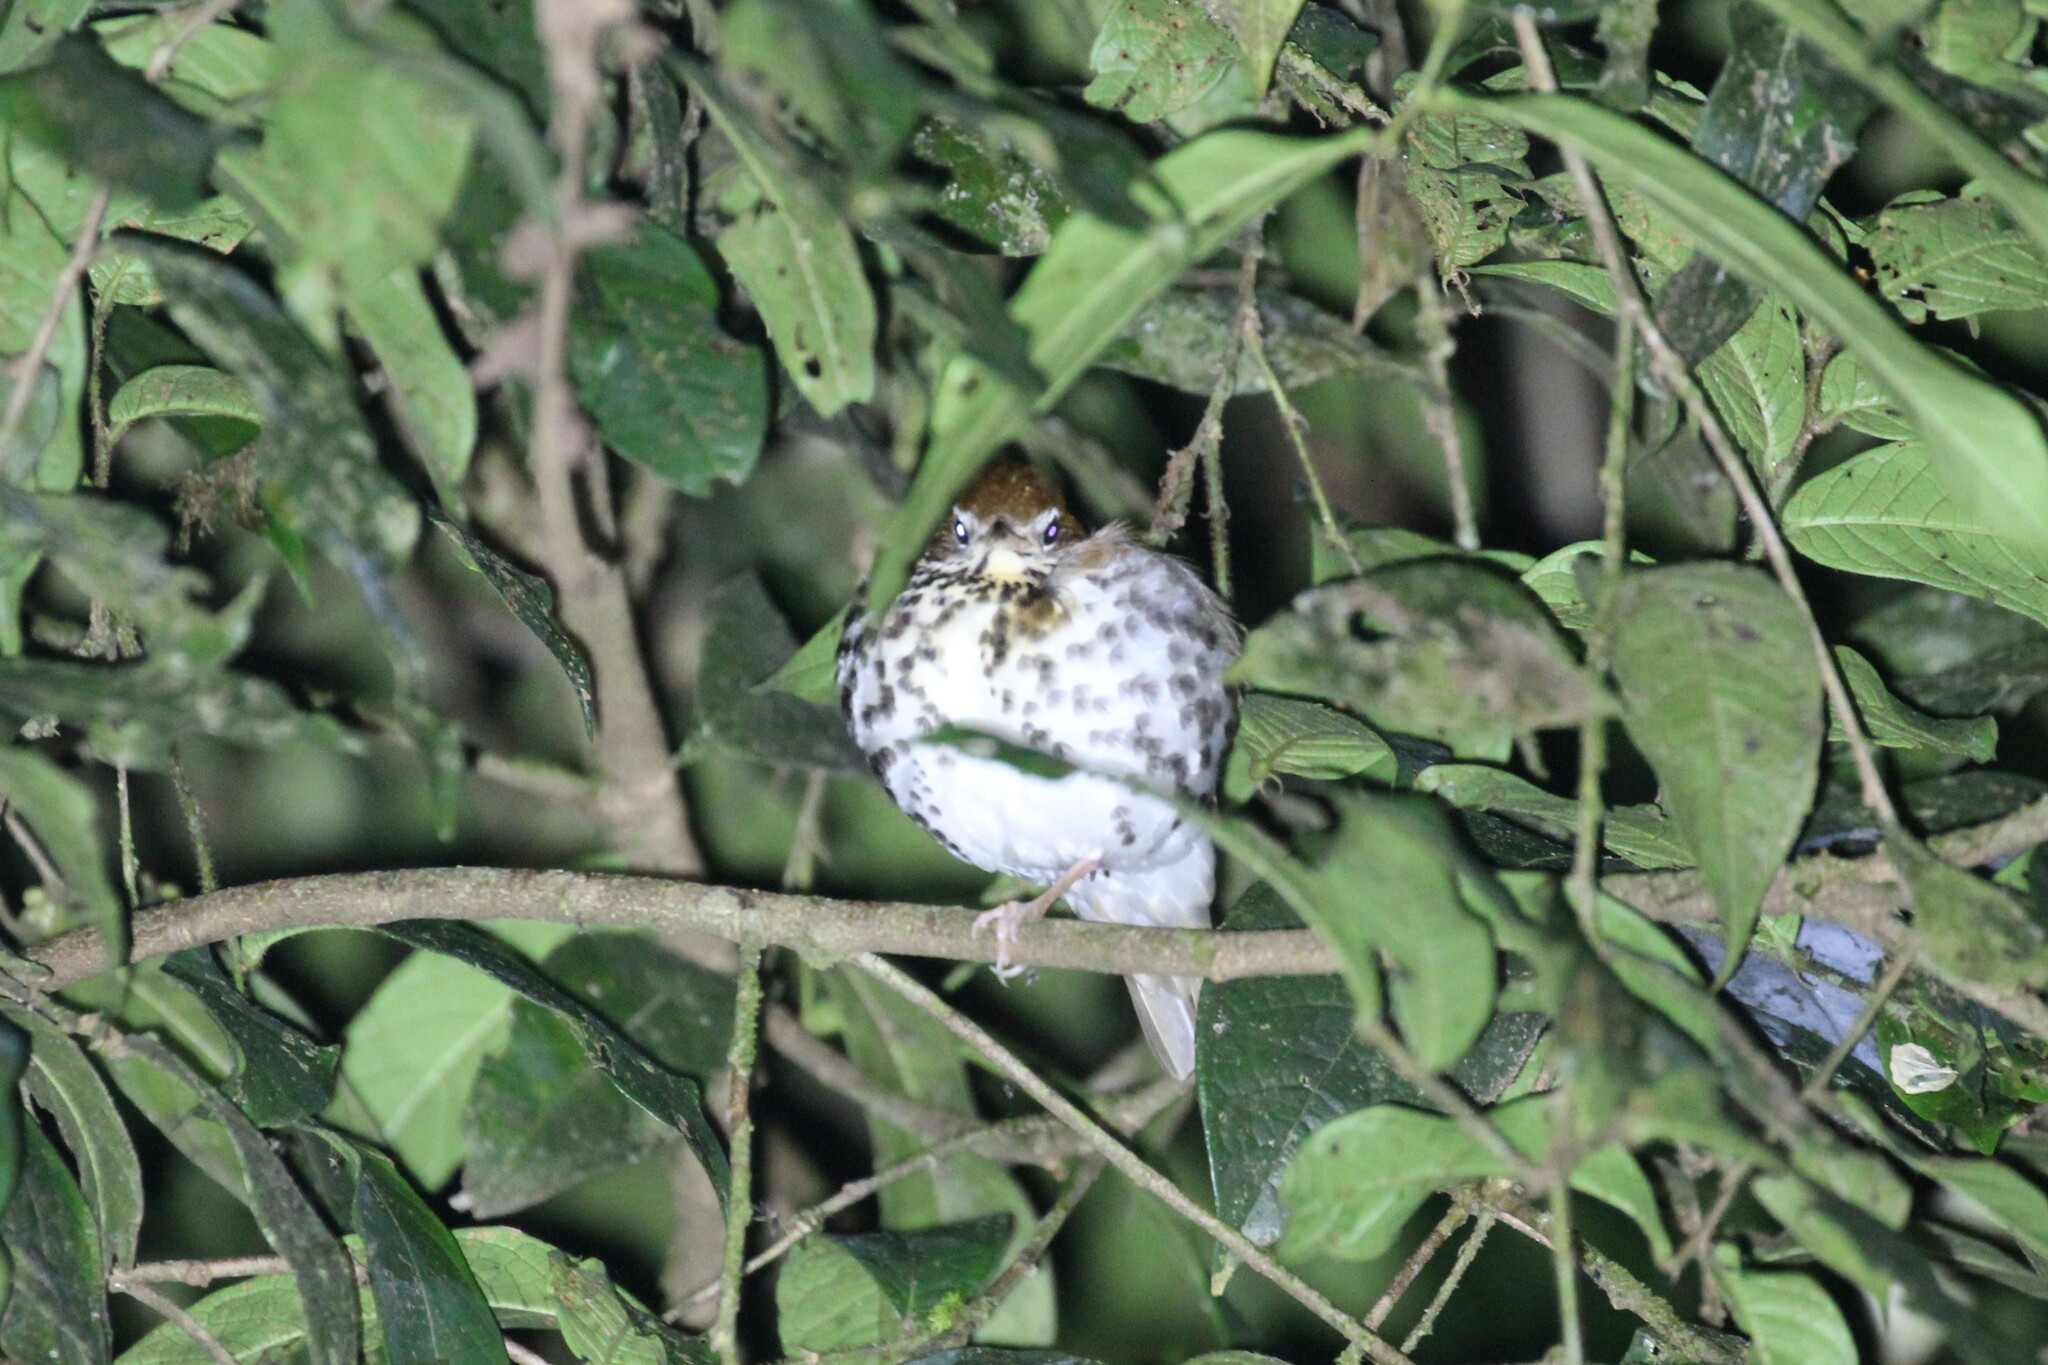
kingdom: Animalia
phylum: Chordata
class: Aves
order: Passeriformes
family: Turdidae
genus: Hylocichla
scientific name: Hylocichla mustelina
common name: Wood thrush
